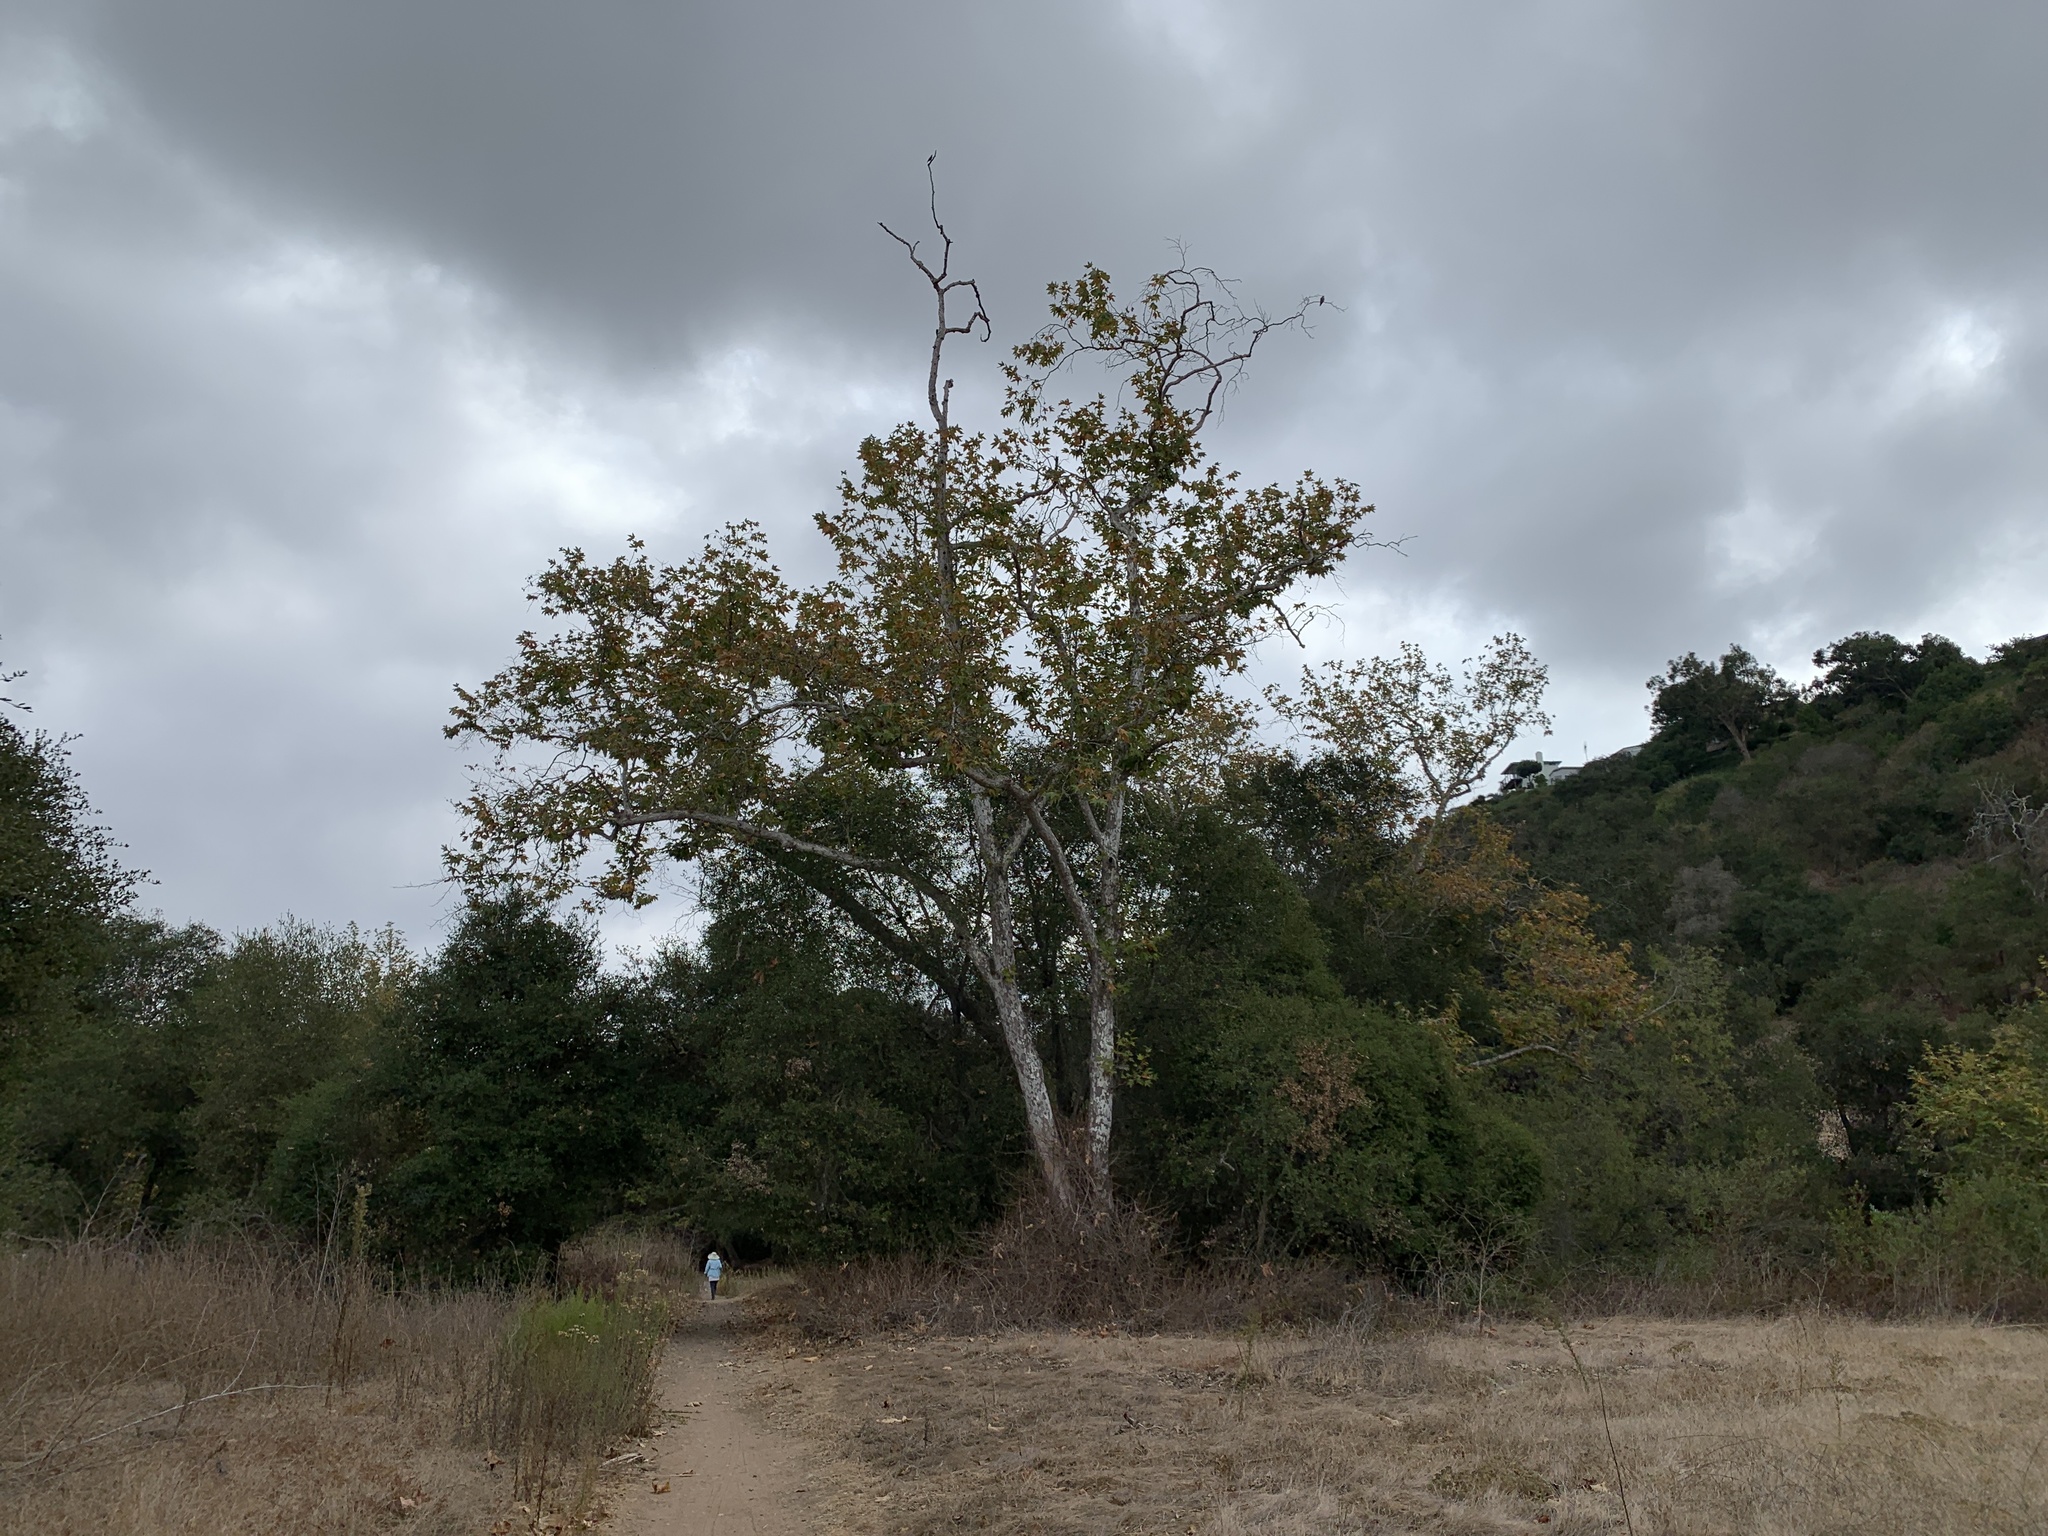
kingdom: Plantae
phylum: Tracheophyta
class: Magnoliopsida
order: Proteales
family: Platanaceae
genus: Platanus
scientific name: Platanus racemosa
